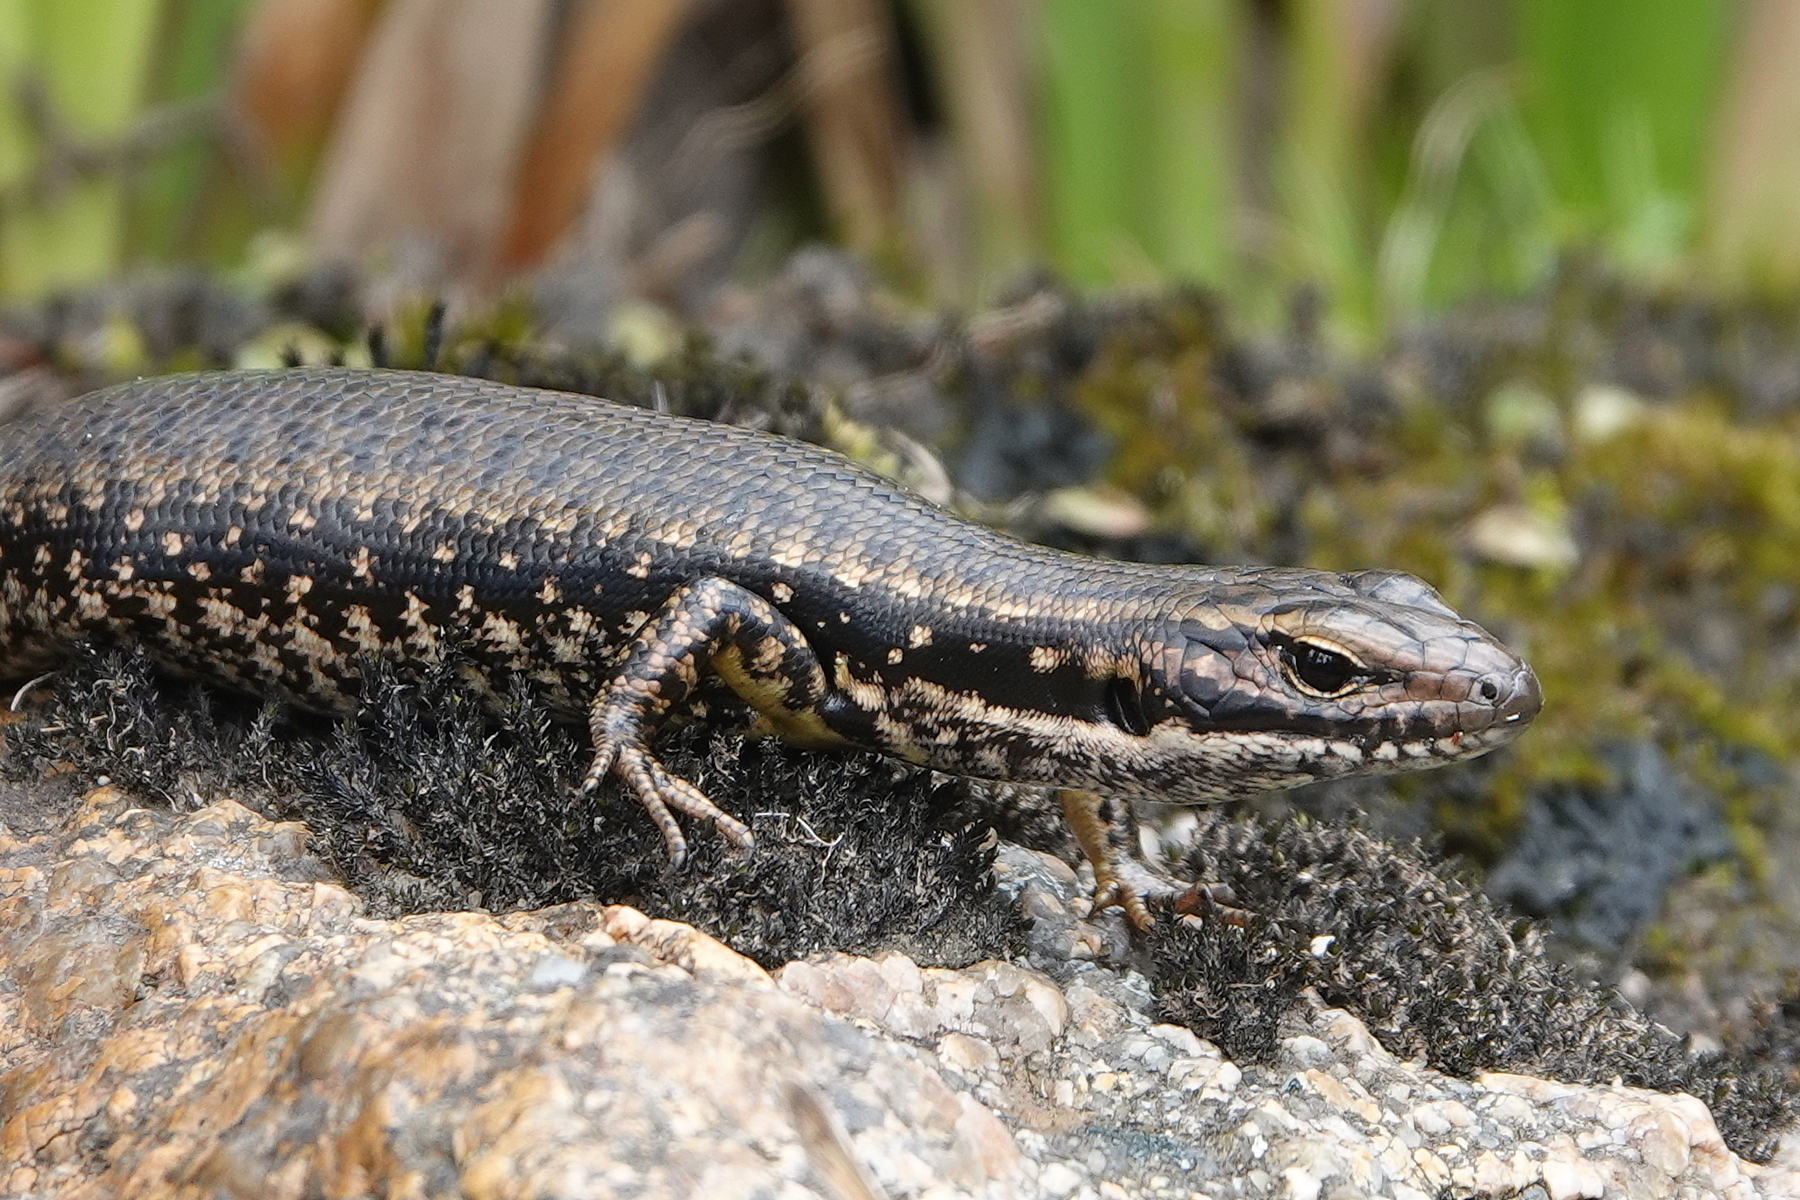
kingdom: Animalia
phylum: Chordata
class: Squamata
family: Scincidae
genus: Eulamprus
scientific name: Eulamprus heatwolei
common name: Warm-temperate water-skink
